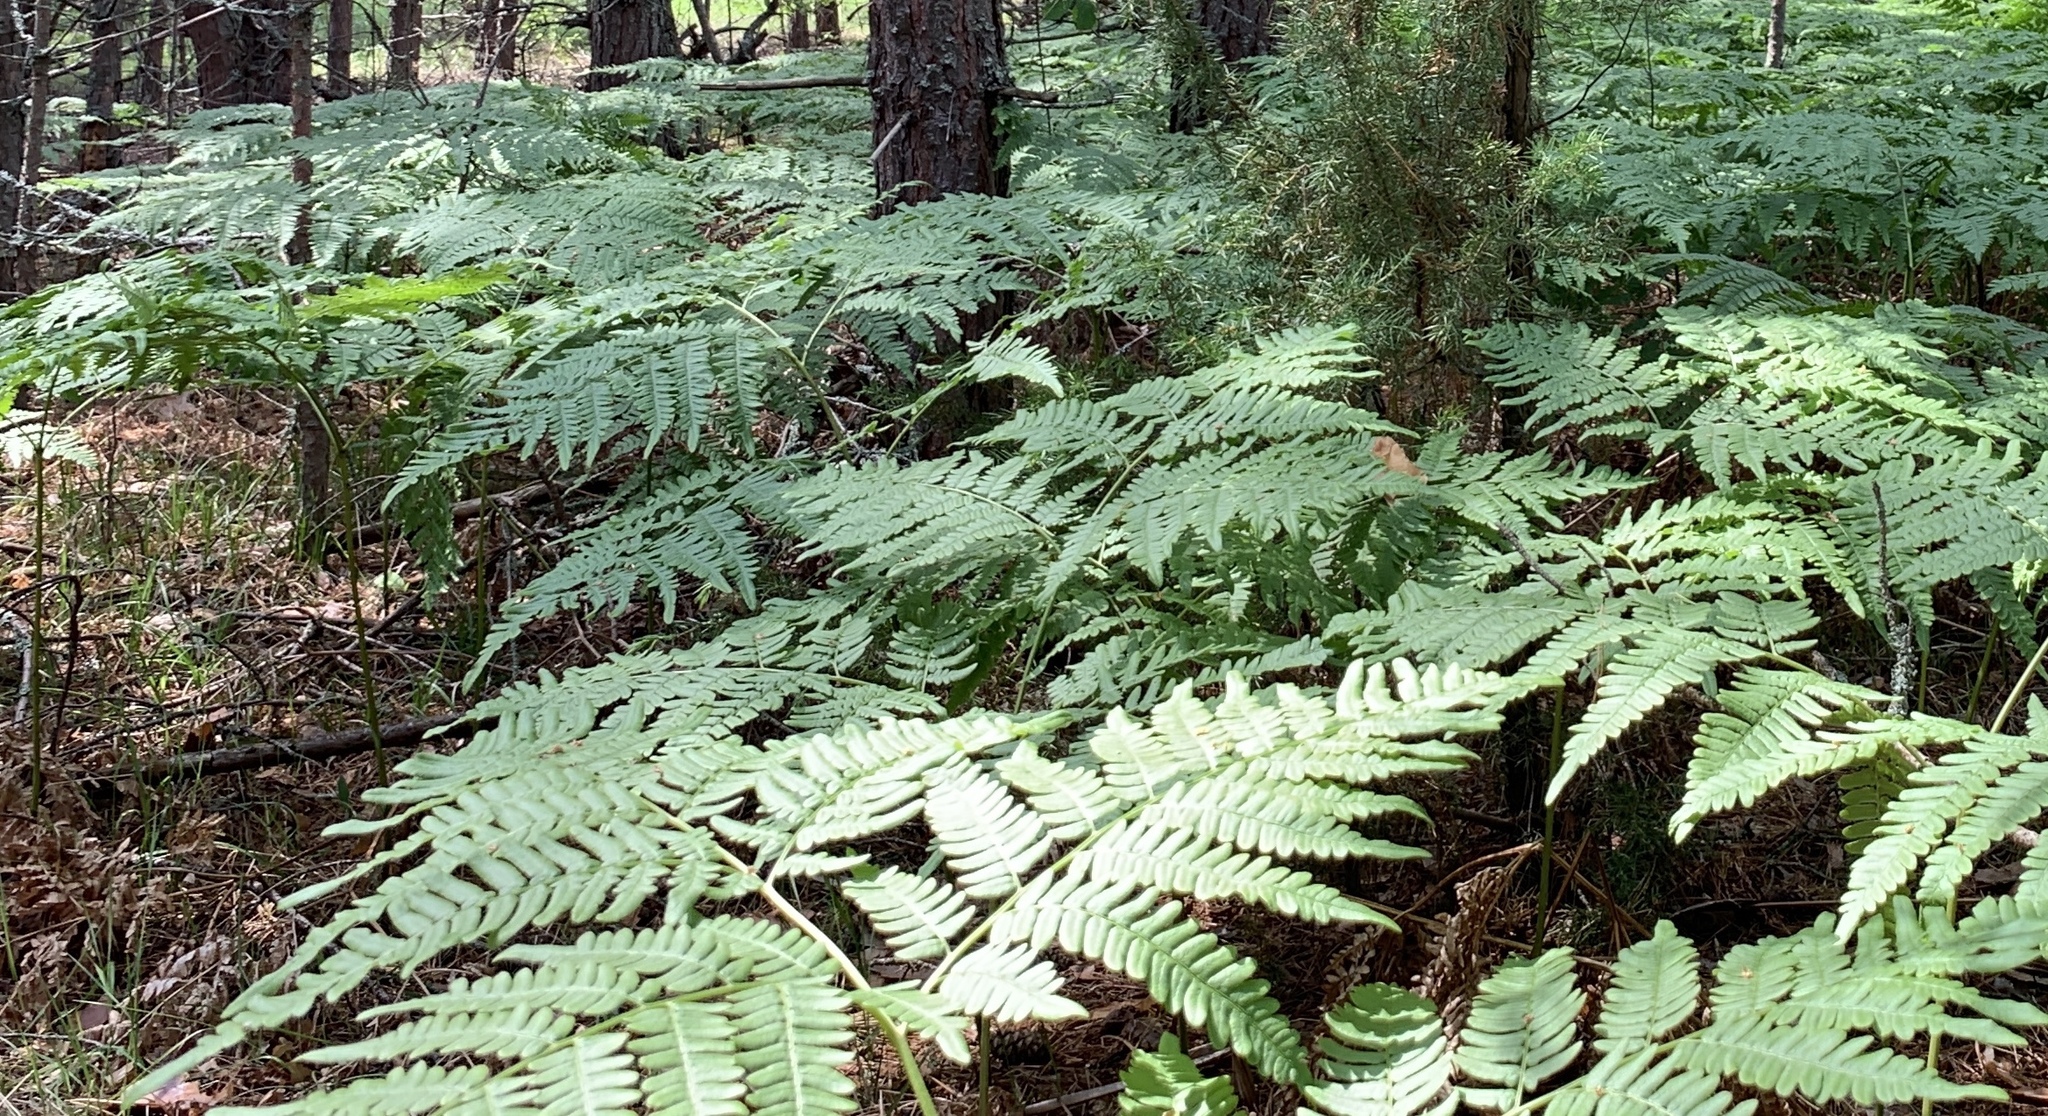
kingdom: Plantae
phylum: Tracheophyta
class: Polypodiopsida
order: Polypodiales
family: Dennstaedtiaceae
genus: Pteridium
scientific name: Pteridium aquilinum
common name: Bracken
